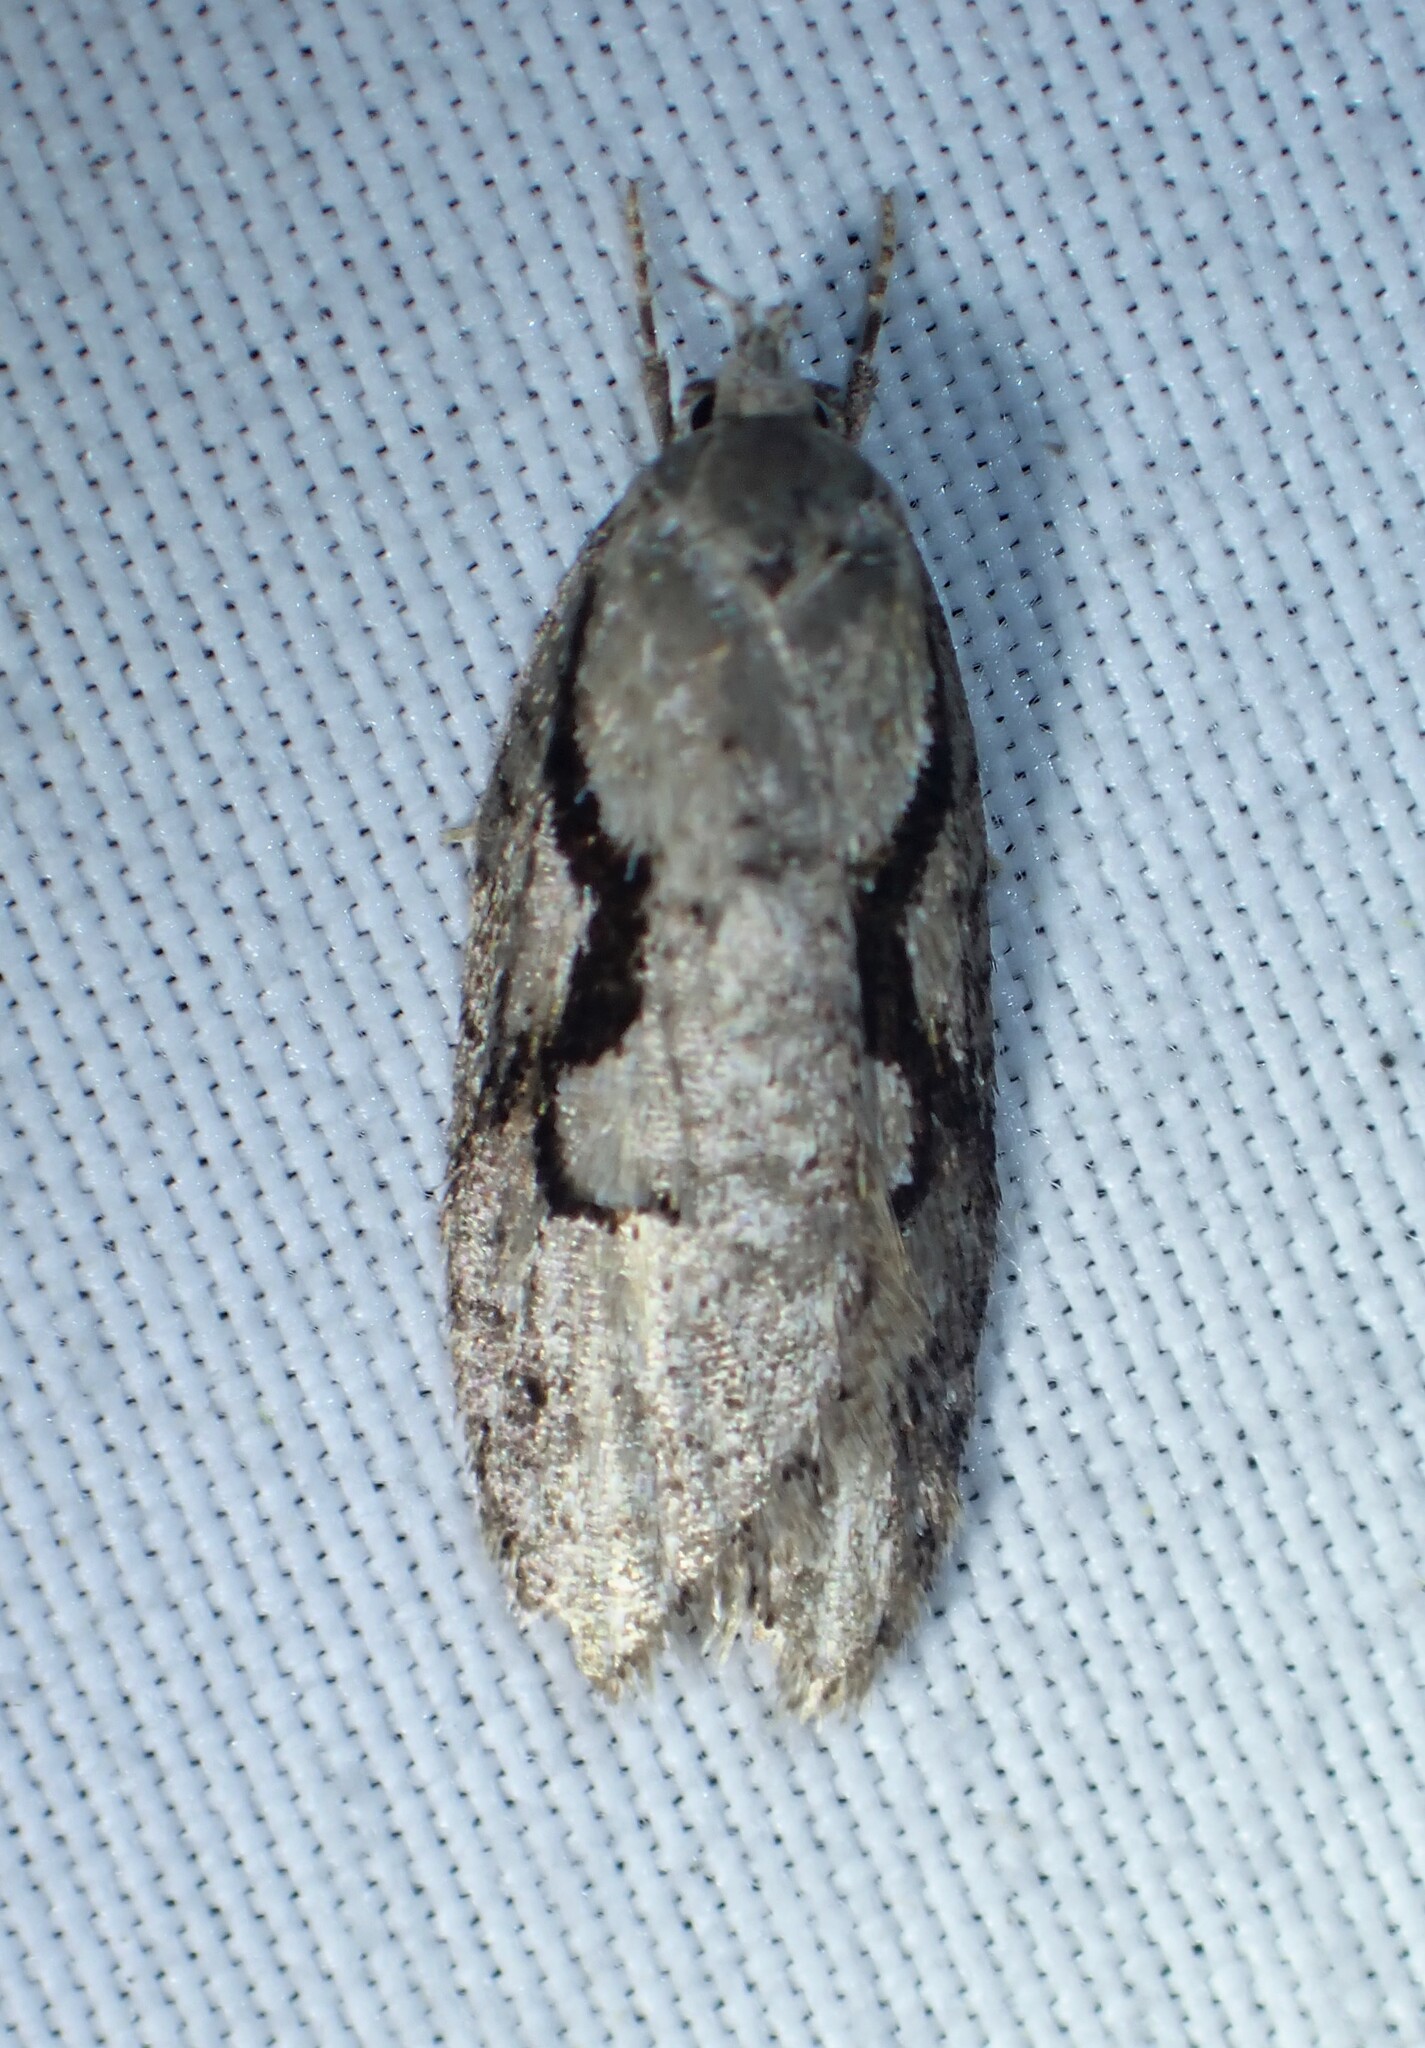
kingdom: Animalia
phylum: Arthropoda
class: Insecta
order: Lepidoptera
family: Depressariidae
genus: Semioscopis
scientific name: Semioscopis packardella
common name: Packard's concealer moth
